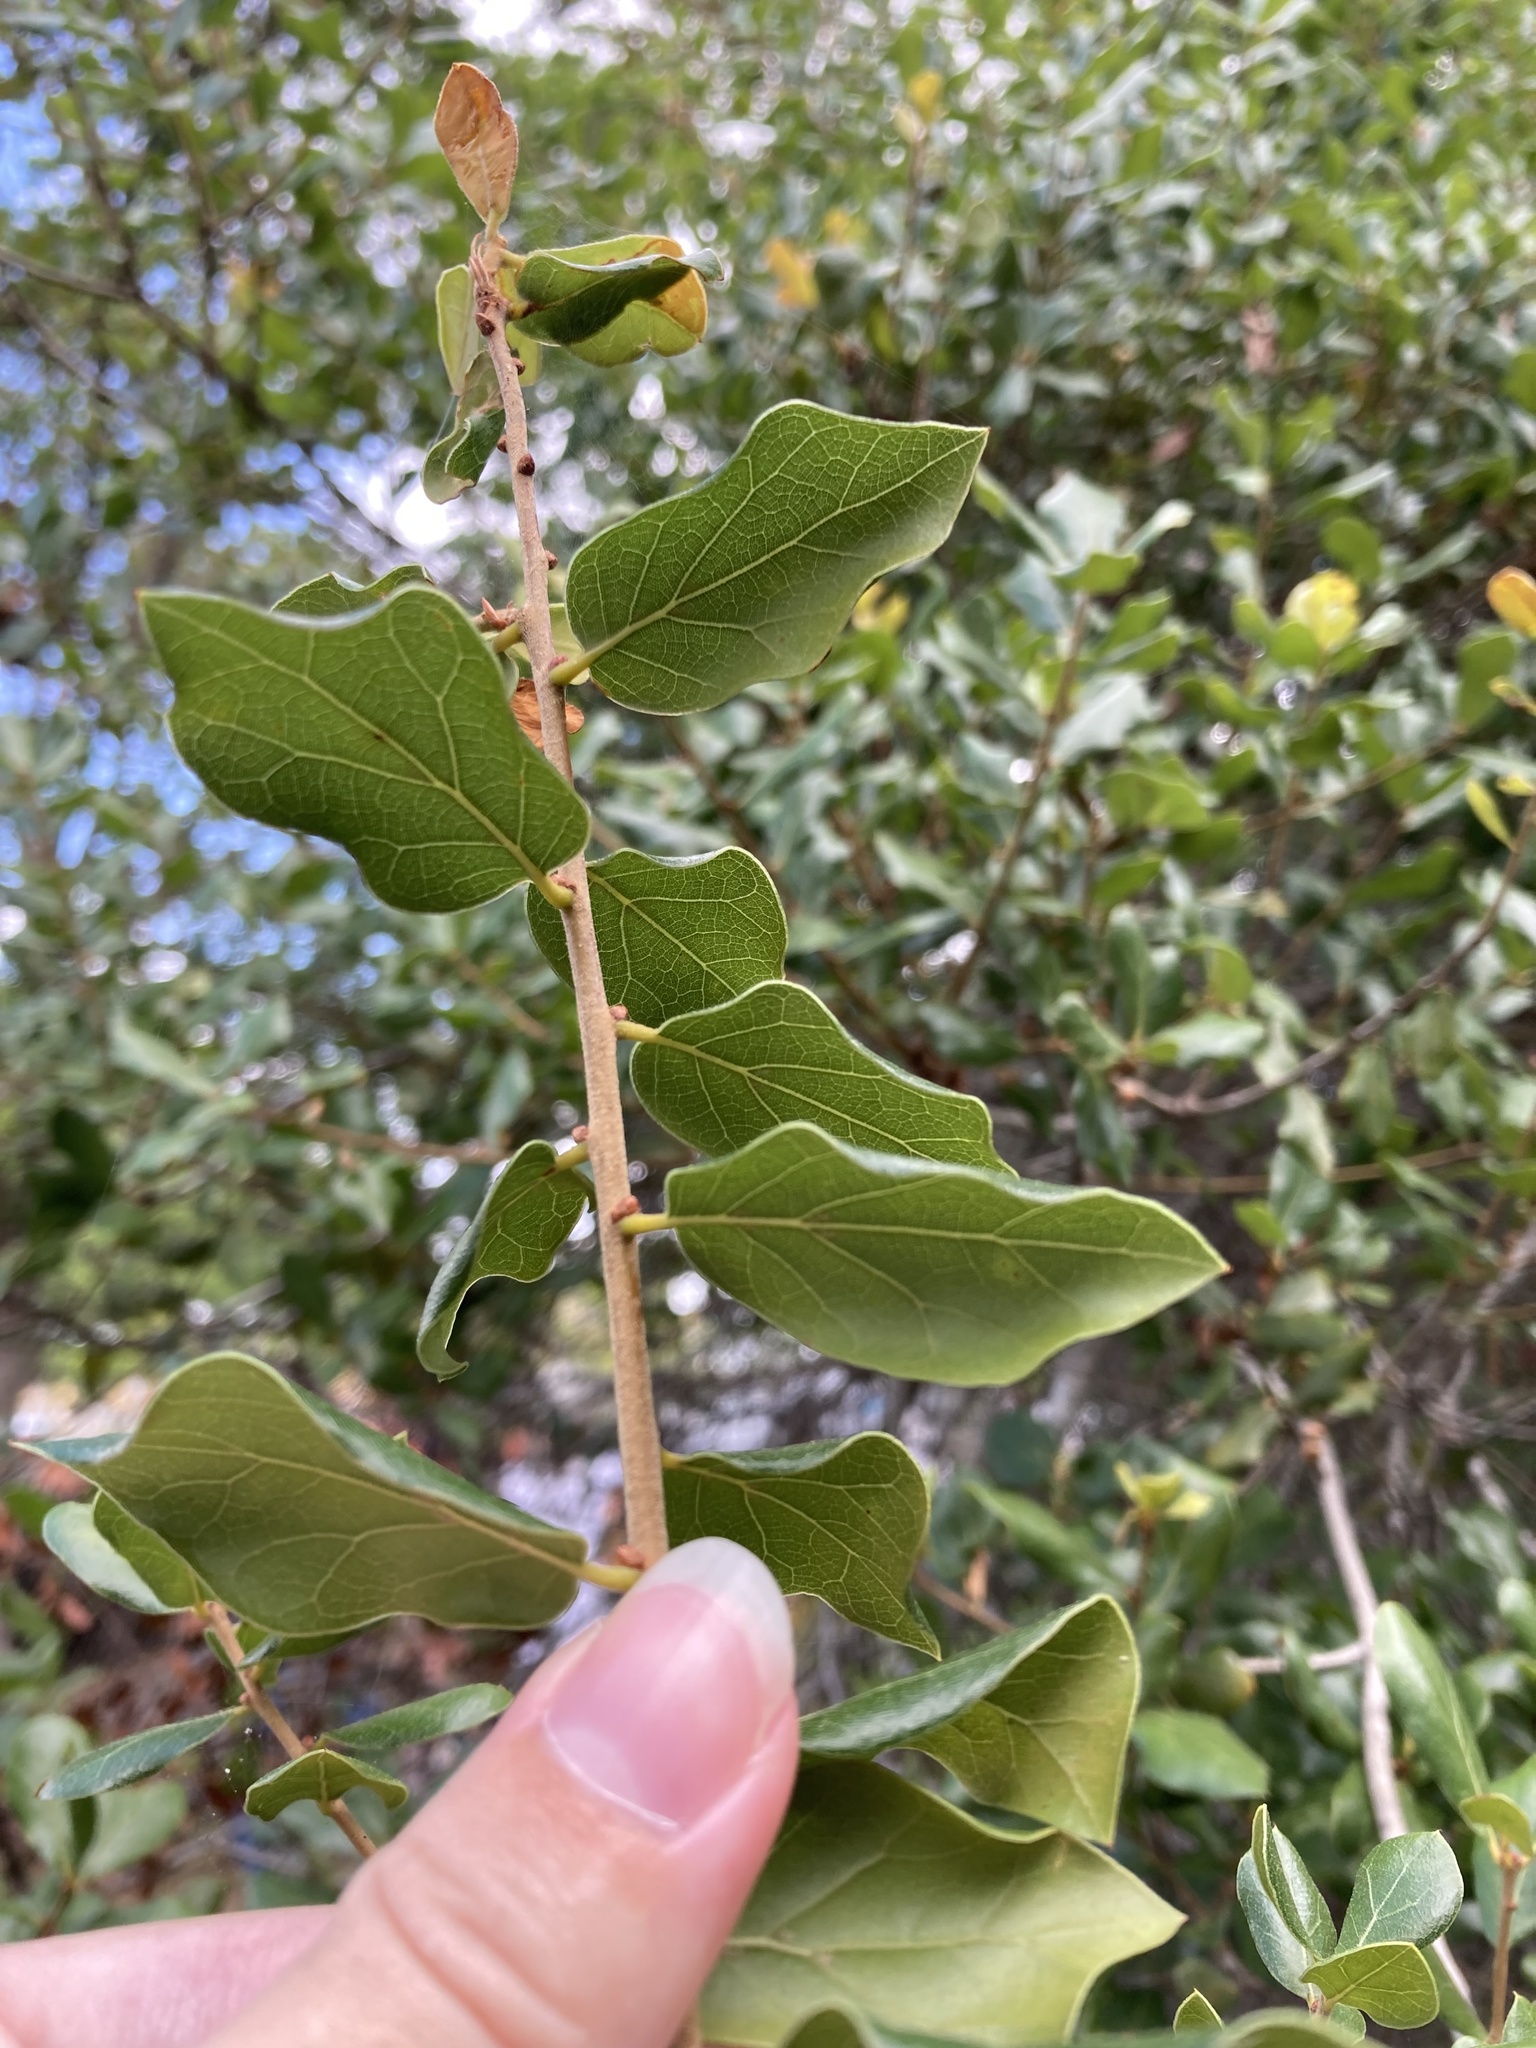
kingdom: Plantae
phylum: Tracheophyta
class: Magnoliopsida
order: Fagales
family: Fagaceae
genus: Quercus
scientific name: Quercus myrtifolia
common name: Myrtle oak
